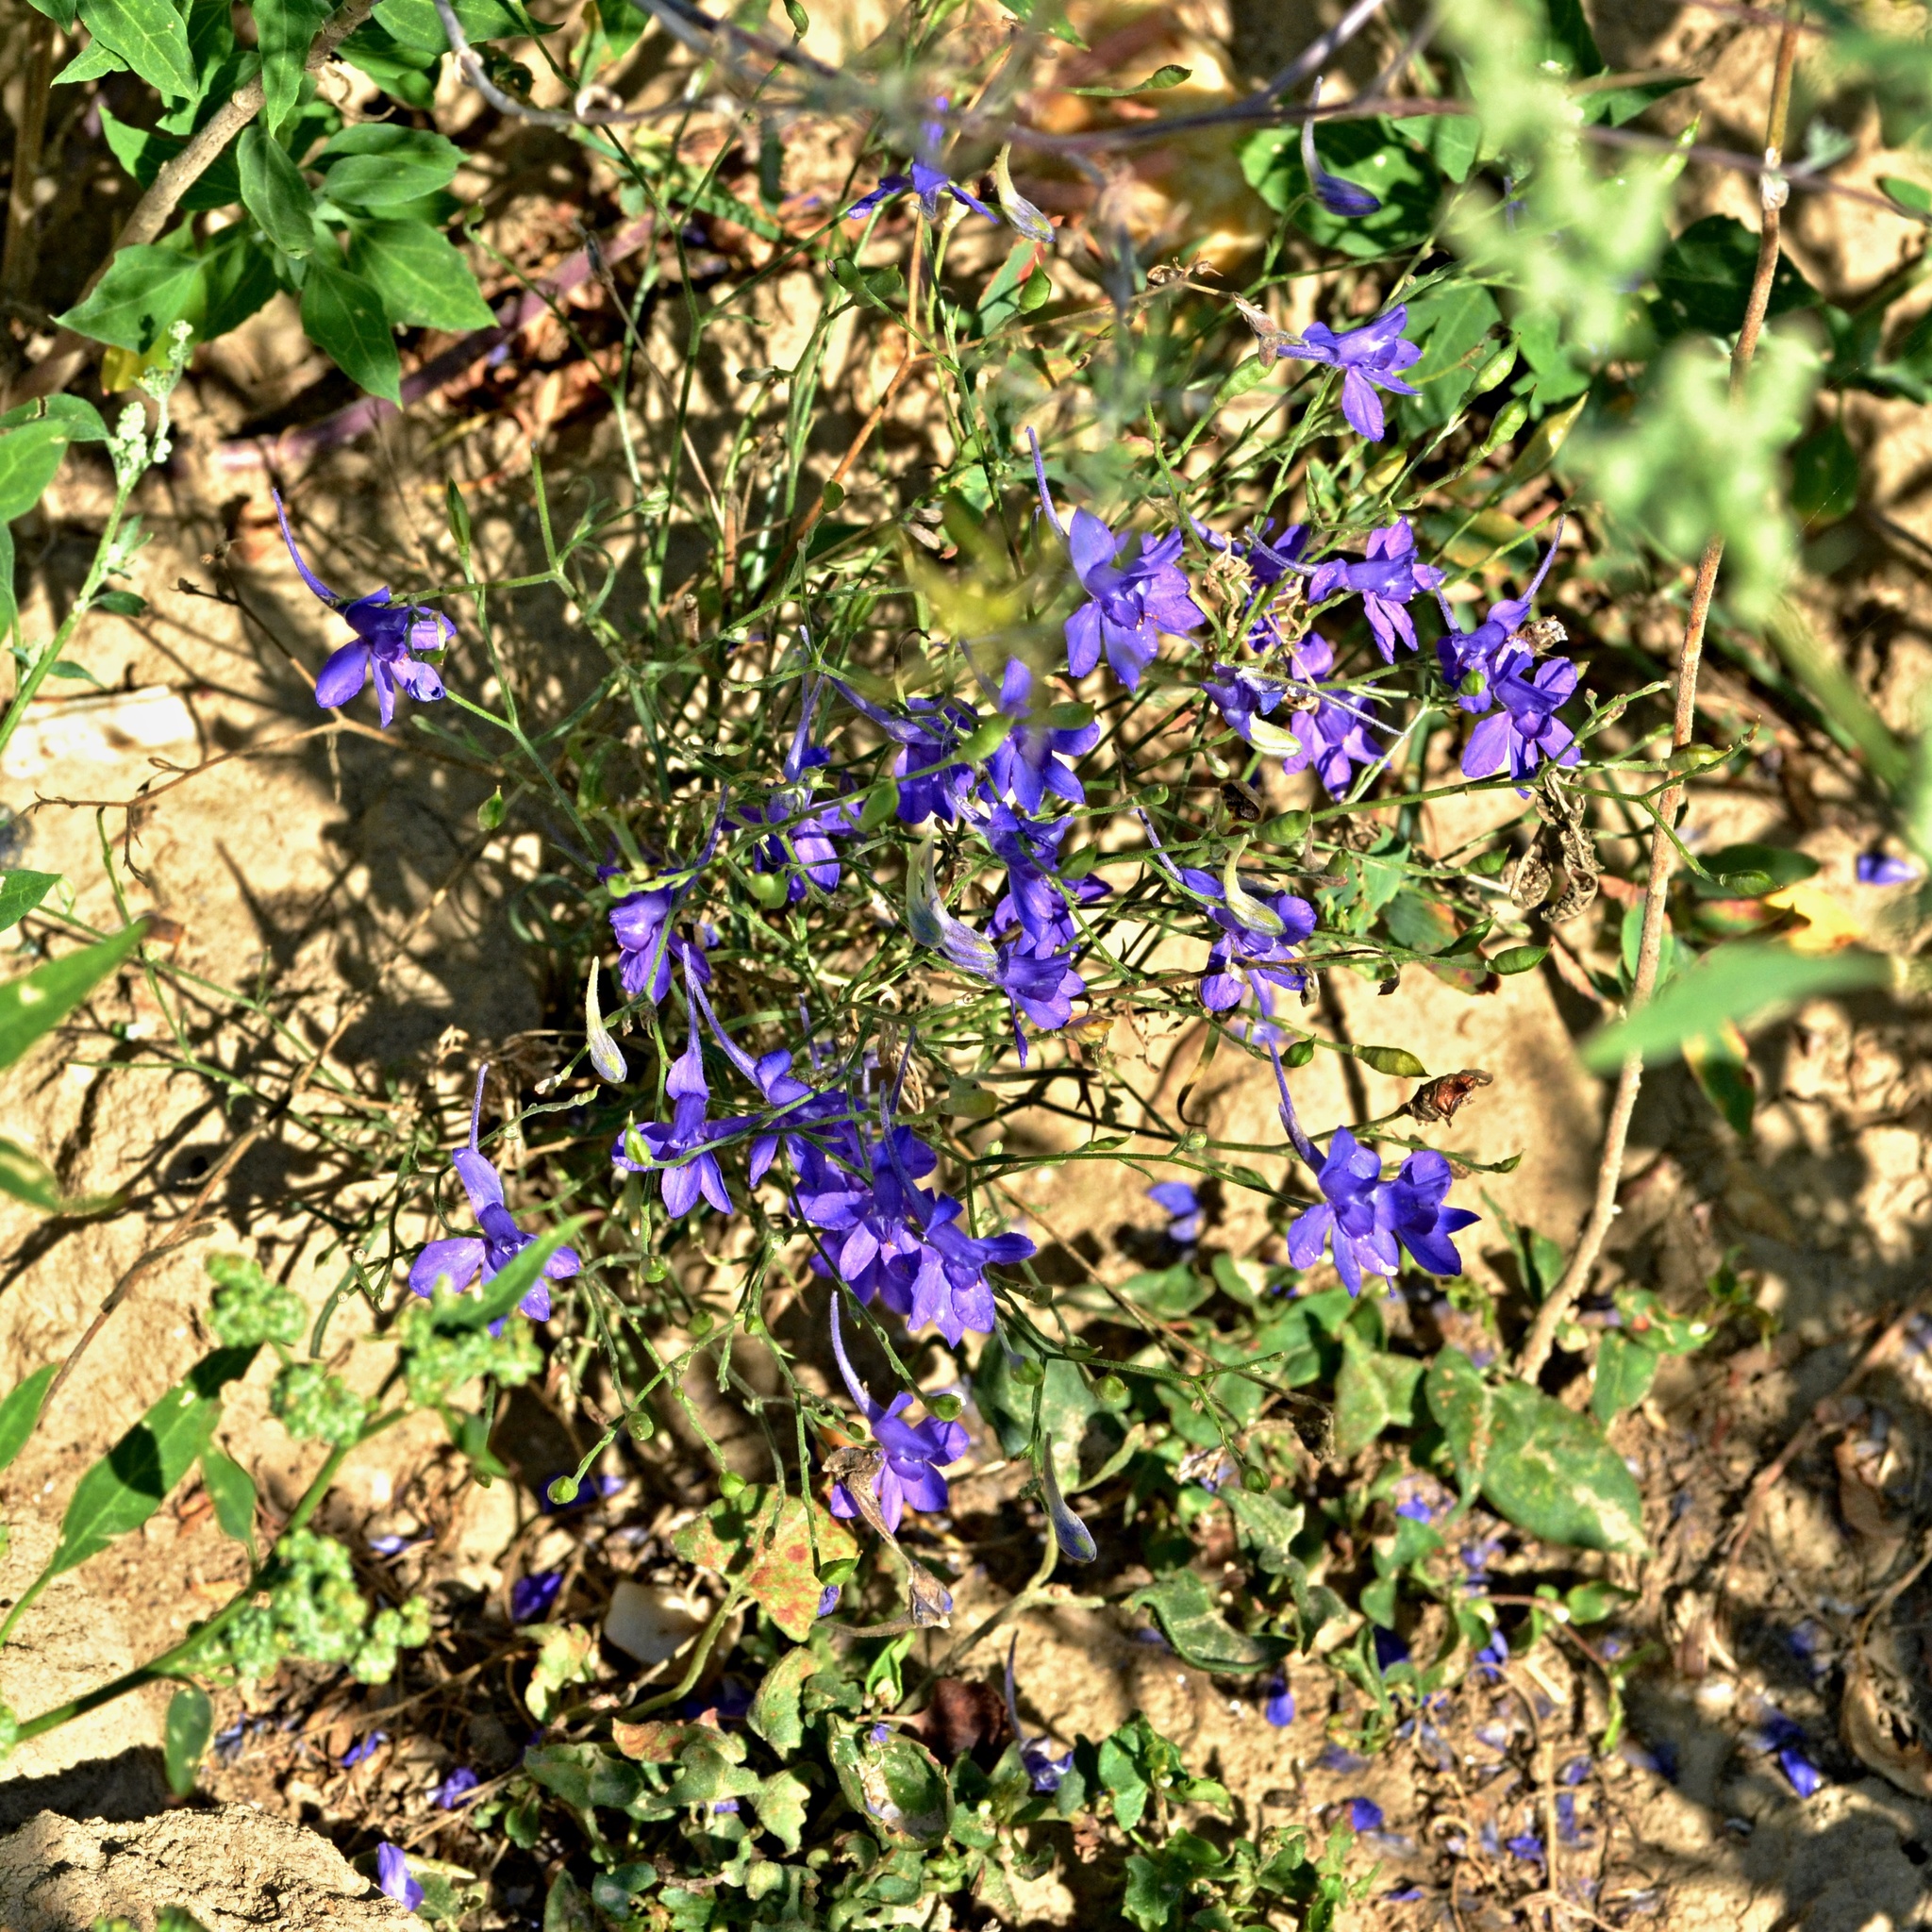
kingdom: Plantae
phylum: Tracheophyta
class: Magnoliopsida
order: Ranunculales
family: Ranunculaceae
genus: Delphinium
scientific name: Delphinium consolida
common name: Branching larkspur
